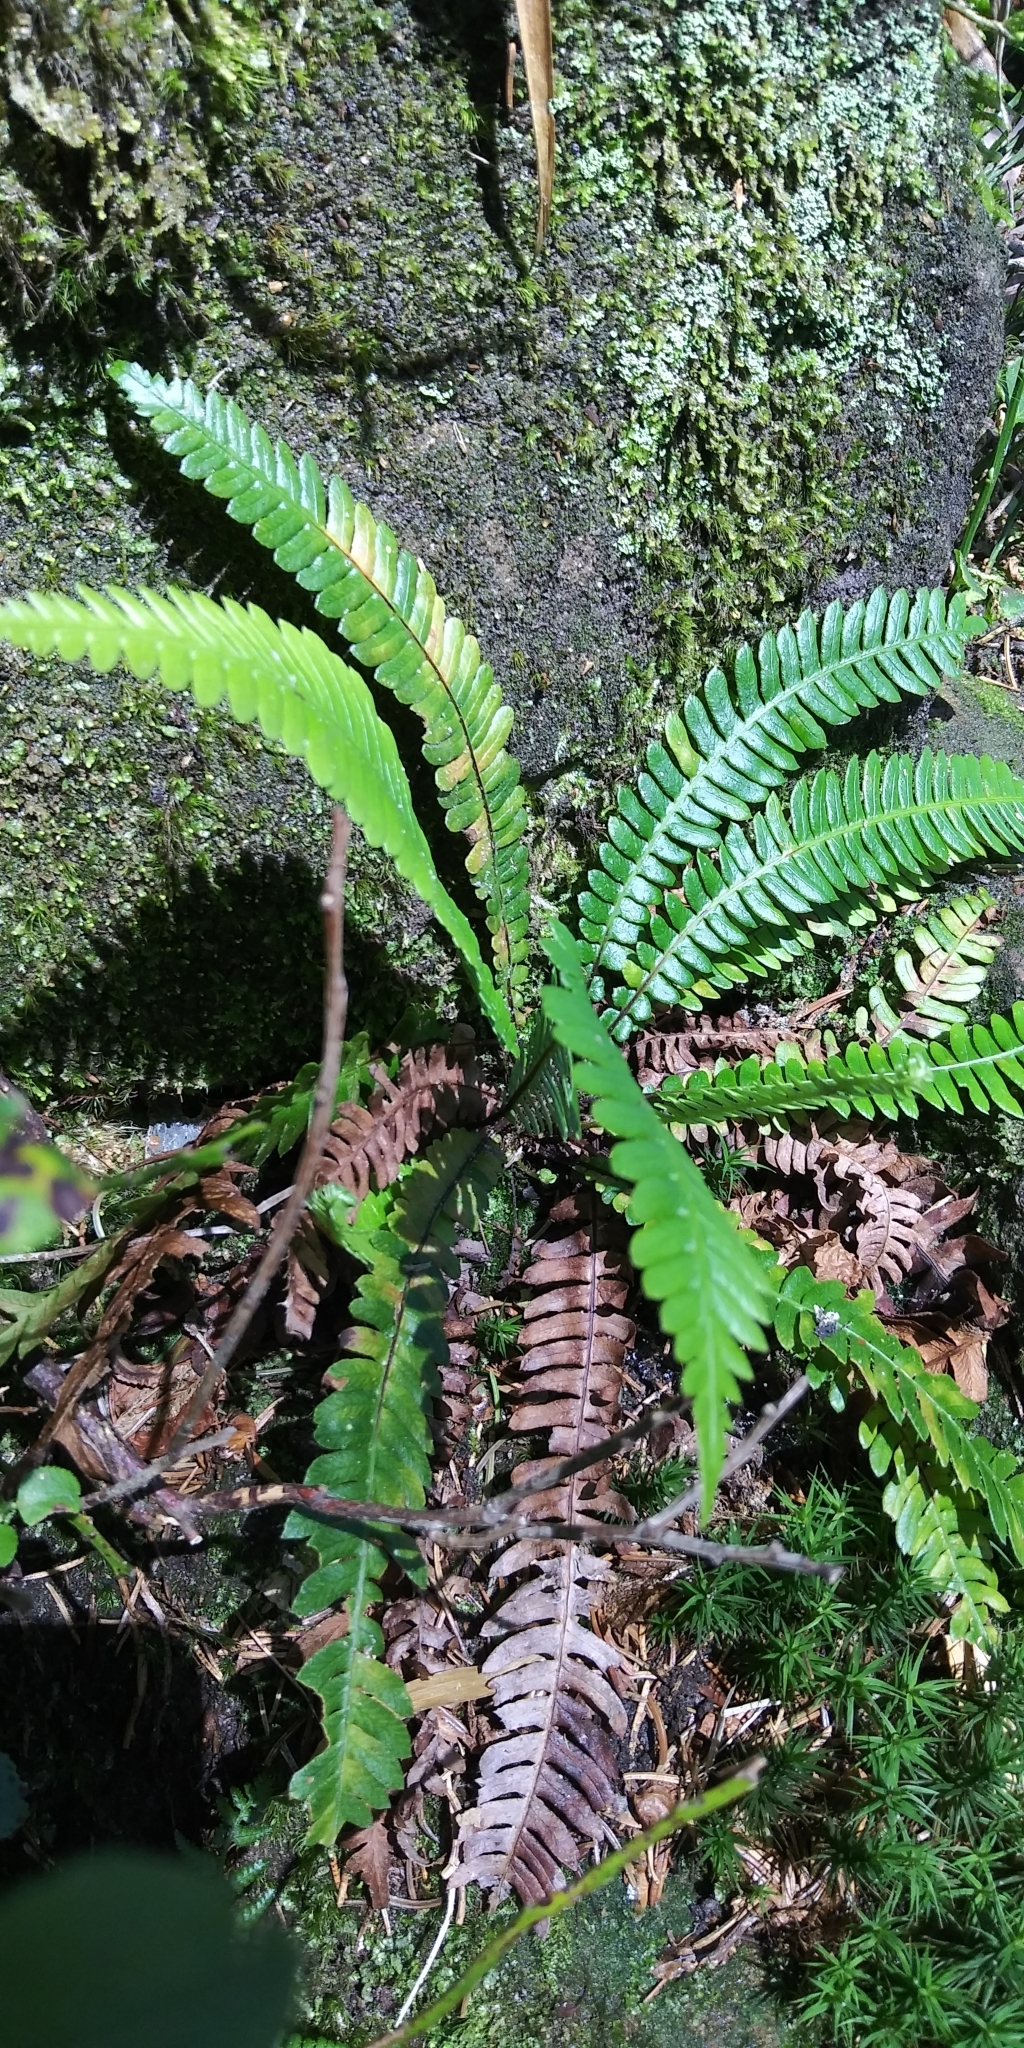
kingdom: Plantae
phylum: Tracheophyta
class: Polypodiopsida
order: Polypodiales
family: Blechnaceae
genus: Struthiopteris
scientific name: Struthiopteris spicant
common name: Deer fern
